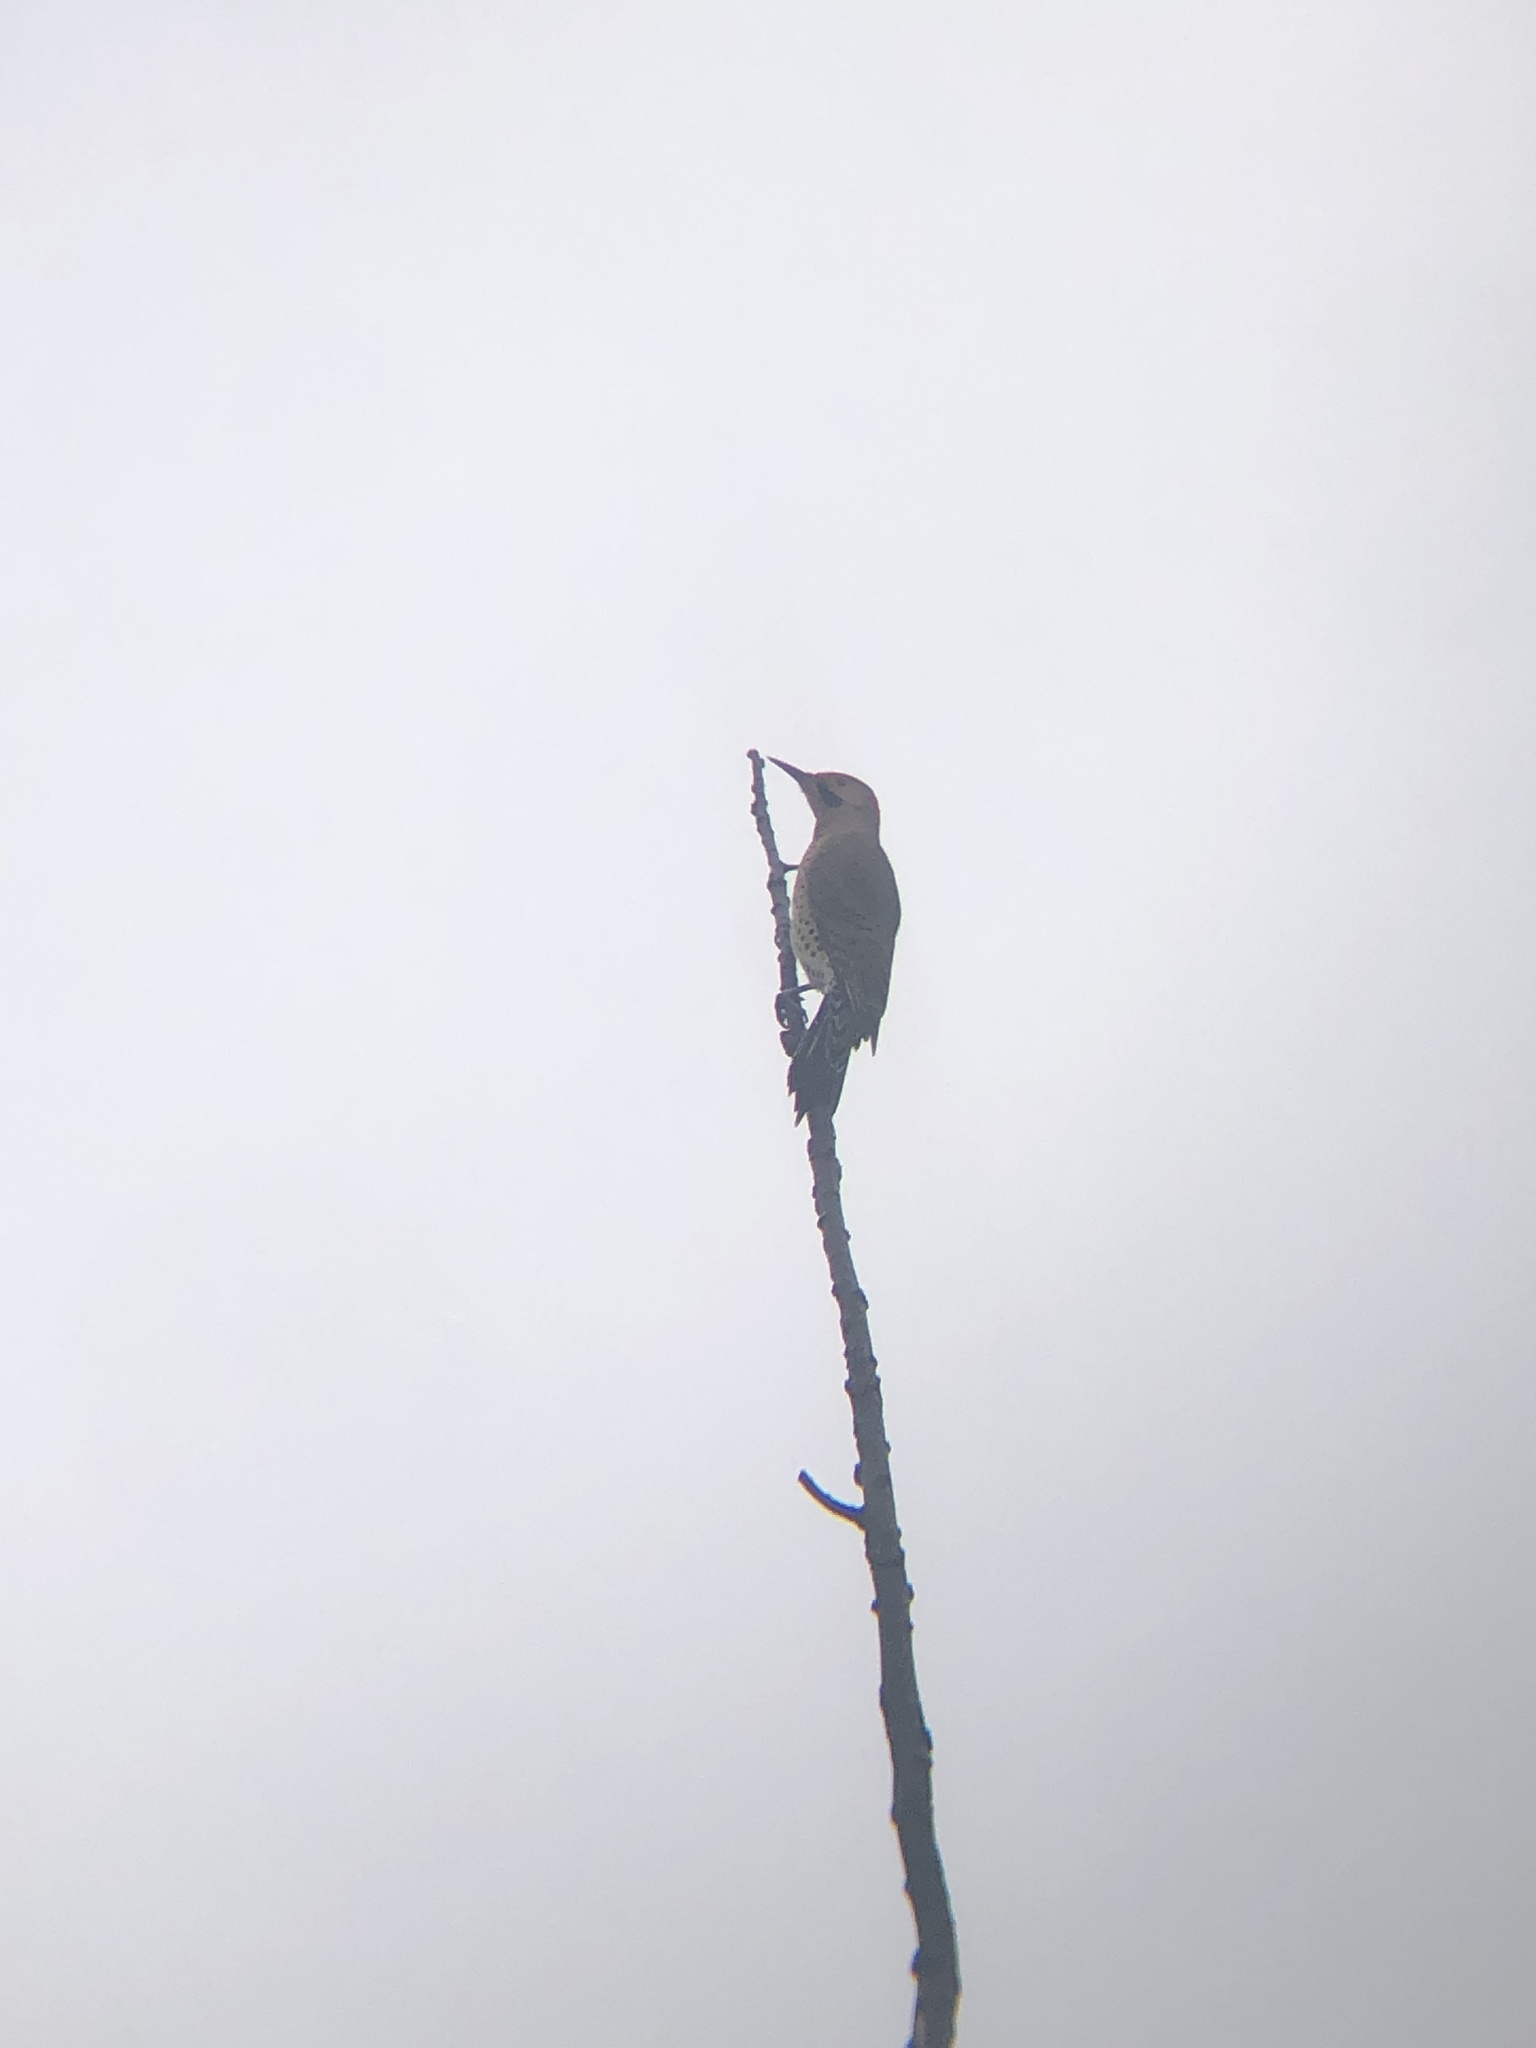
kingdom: Animalia
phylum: Chordata
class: Aves
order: Piciformes
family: Picidae
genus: Colaptes
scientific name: Colaptes auratus
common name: Northern flicker
